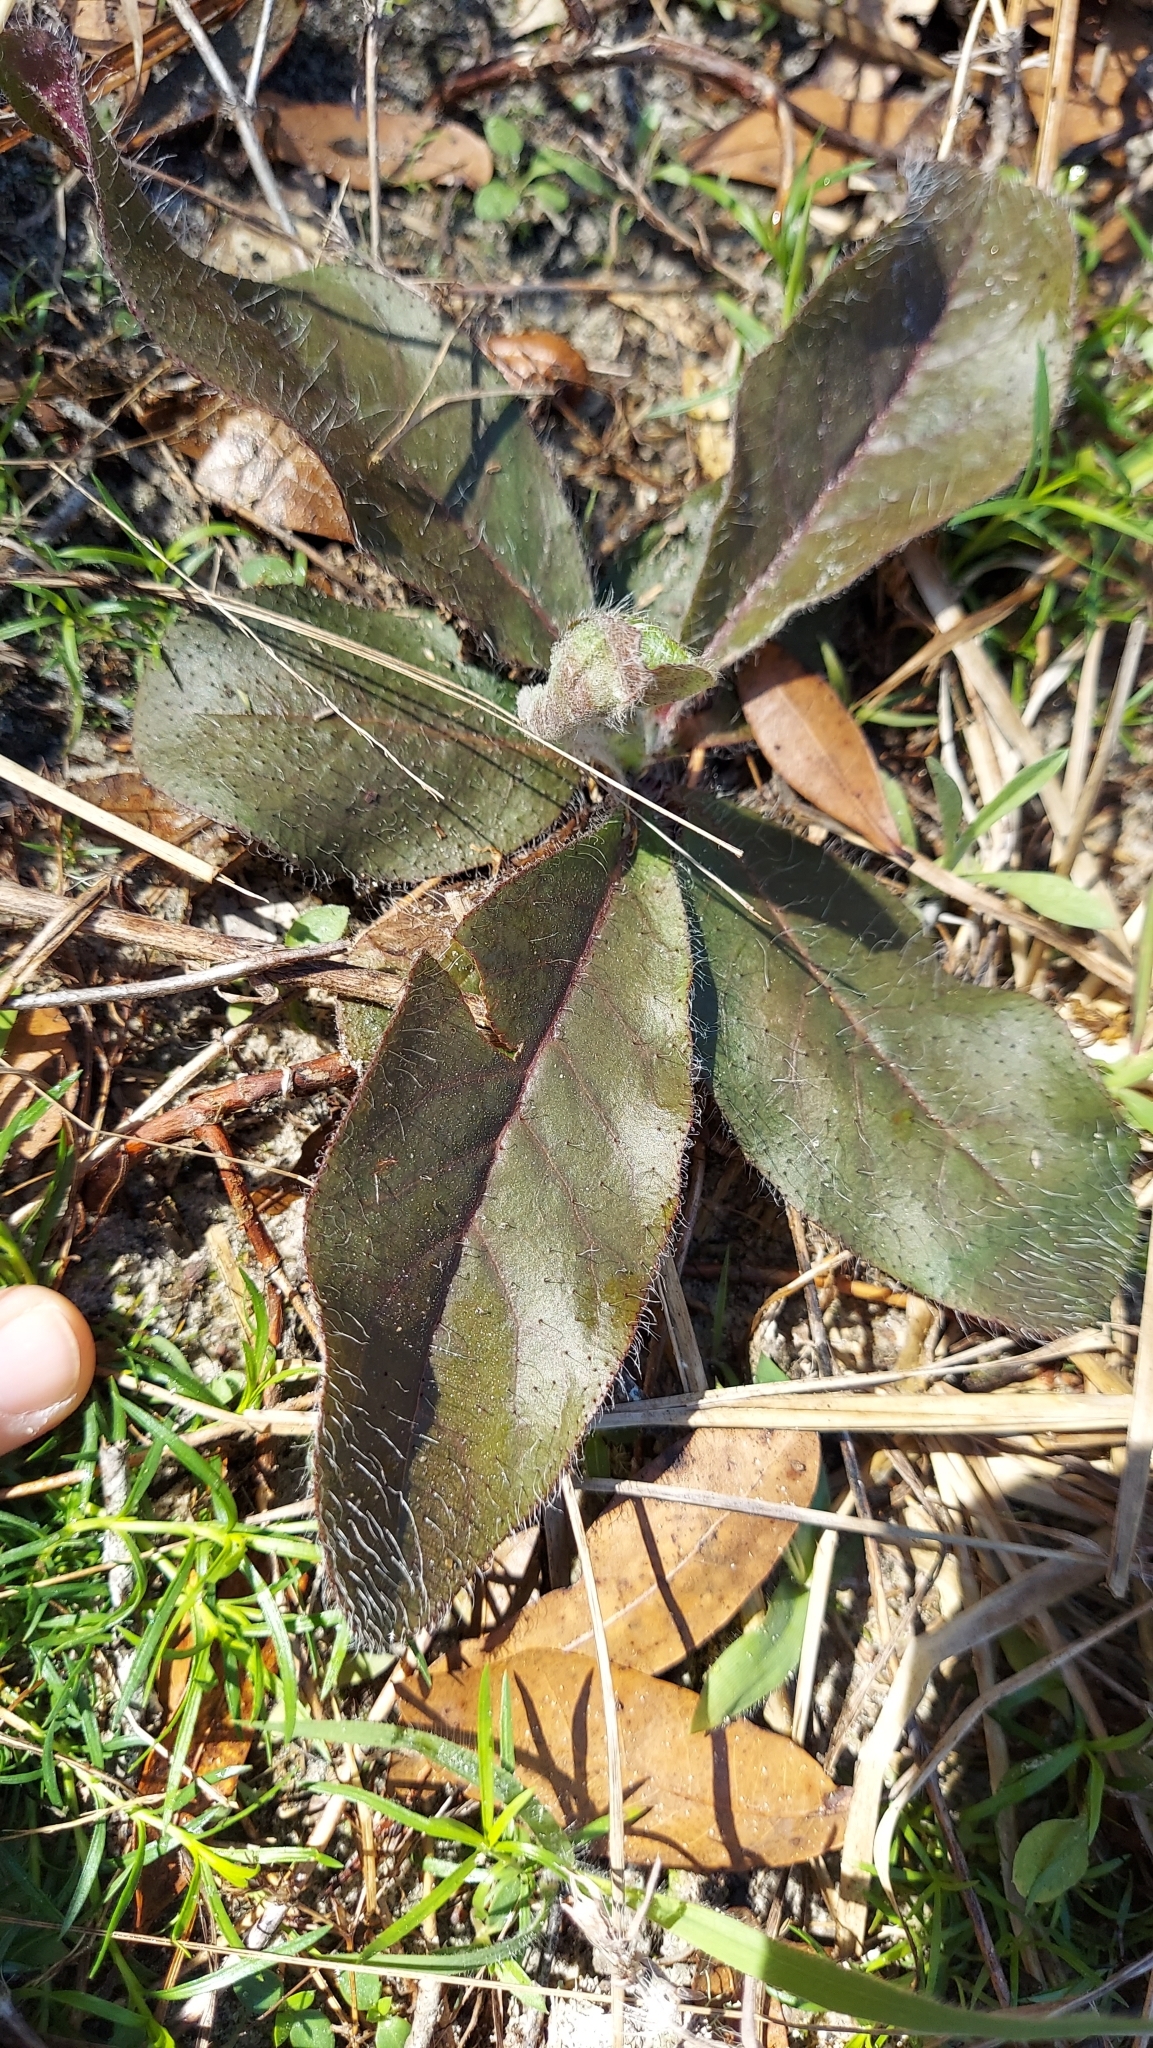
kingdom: Plantae
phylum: Tracheophyta
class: Magnoliopsida
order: Asterales
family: Asteraceae
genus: Hieracium
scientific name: Hieracium megacephalum
